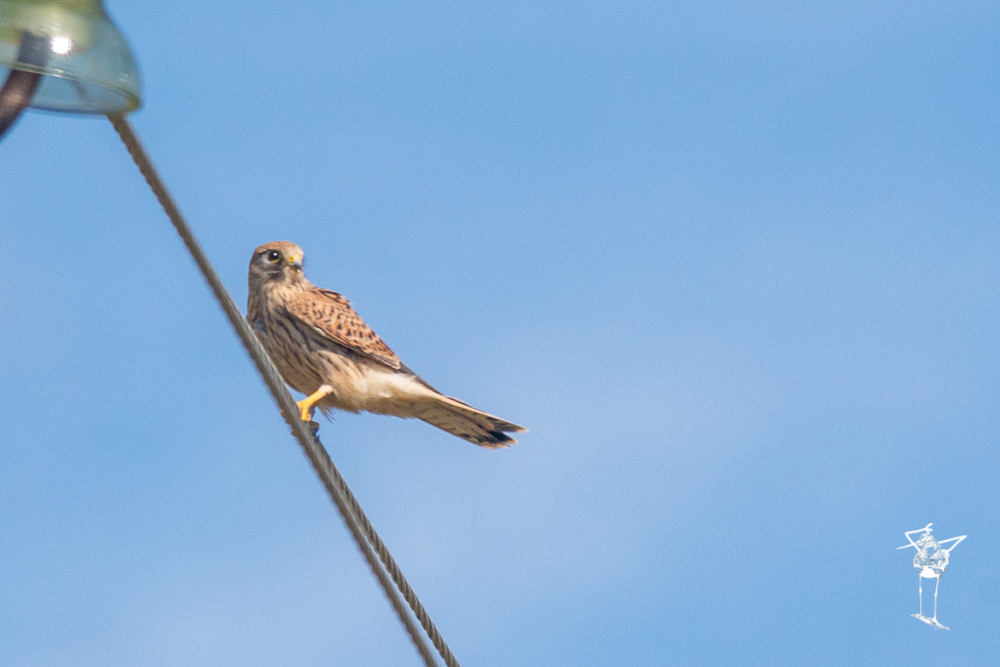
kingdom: Animalia
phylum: Chordata
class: Aves
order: Falconiformes
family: Falconidae
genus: Falco
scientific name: Falco tinnunculus
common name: Common kestrel
